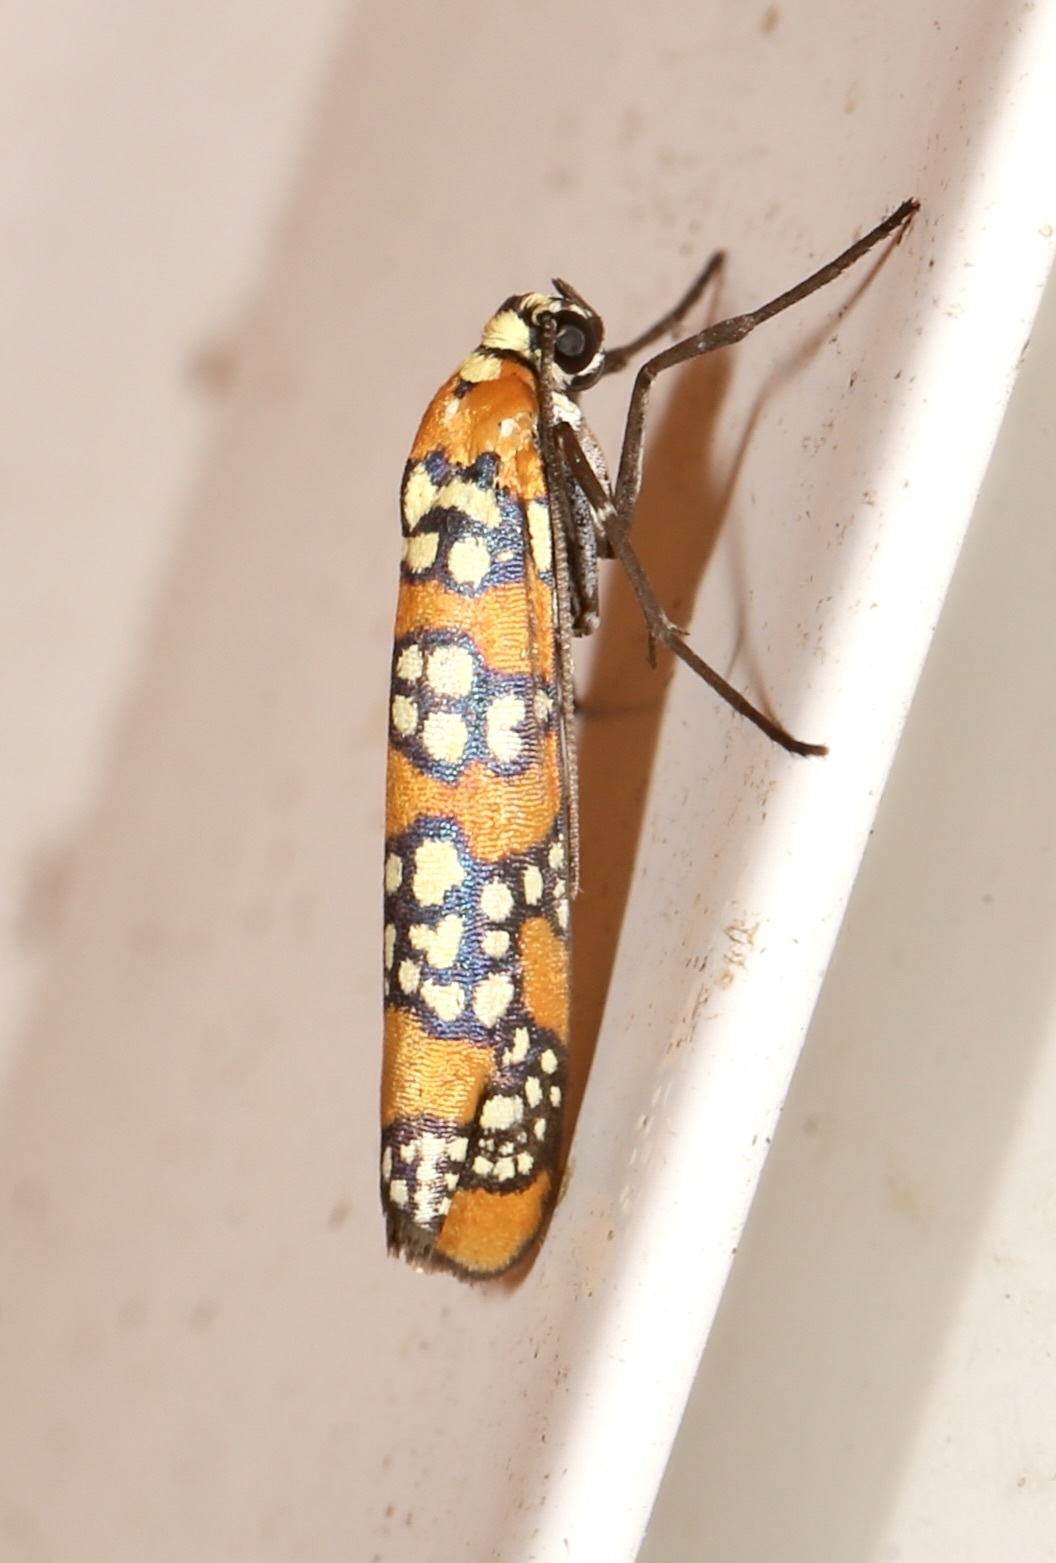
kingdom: Animalia
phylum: Arthropoda
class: Insecta
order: Lepidoptera
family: Attevidae
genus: Atteva
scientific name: Atteva punctella
